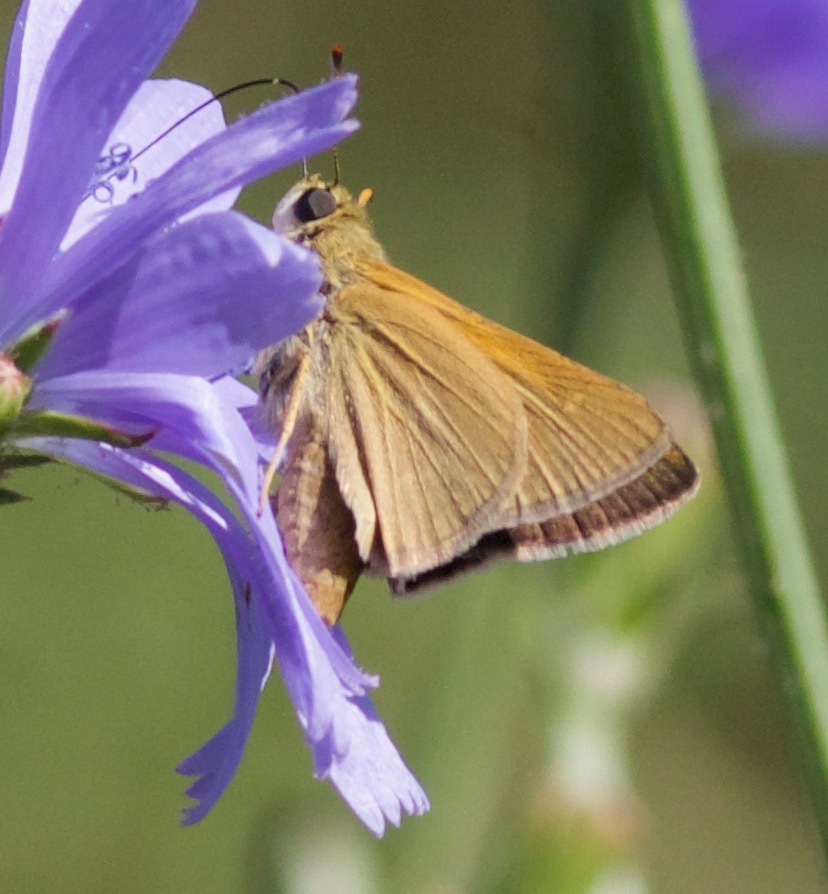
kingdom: Animalia
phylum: Arthropoda
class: Insecta
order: Lepidoptera
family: Hesperiidae
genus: Polites
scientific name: Polites origenes
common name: Crossline skipper
